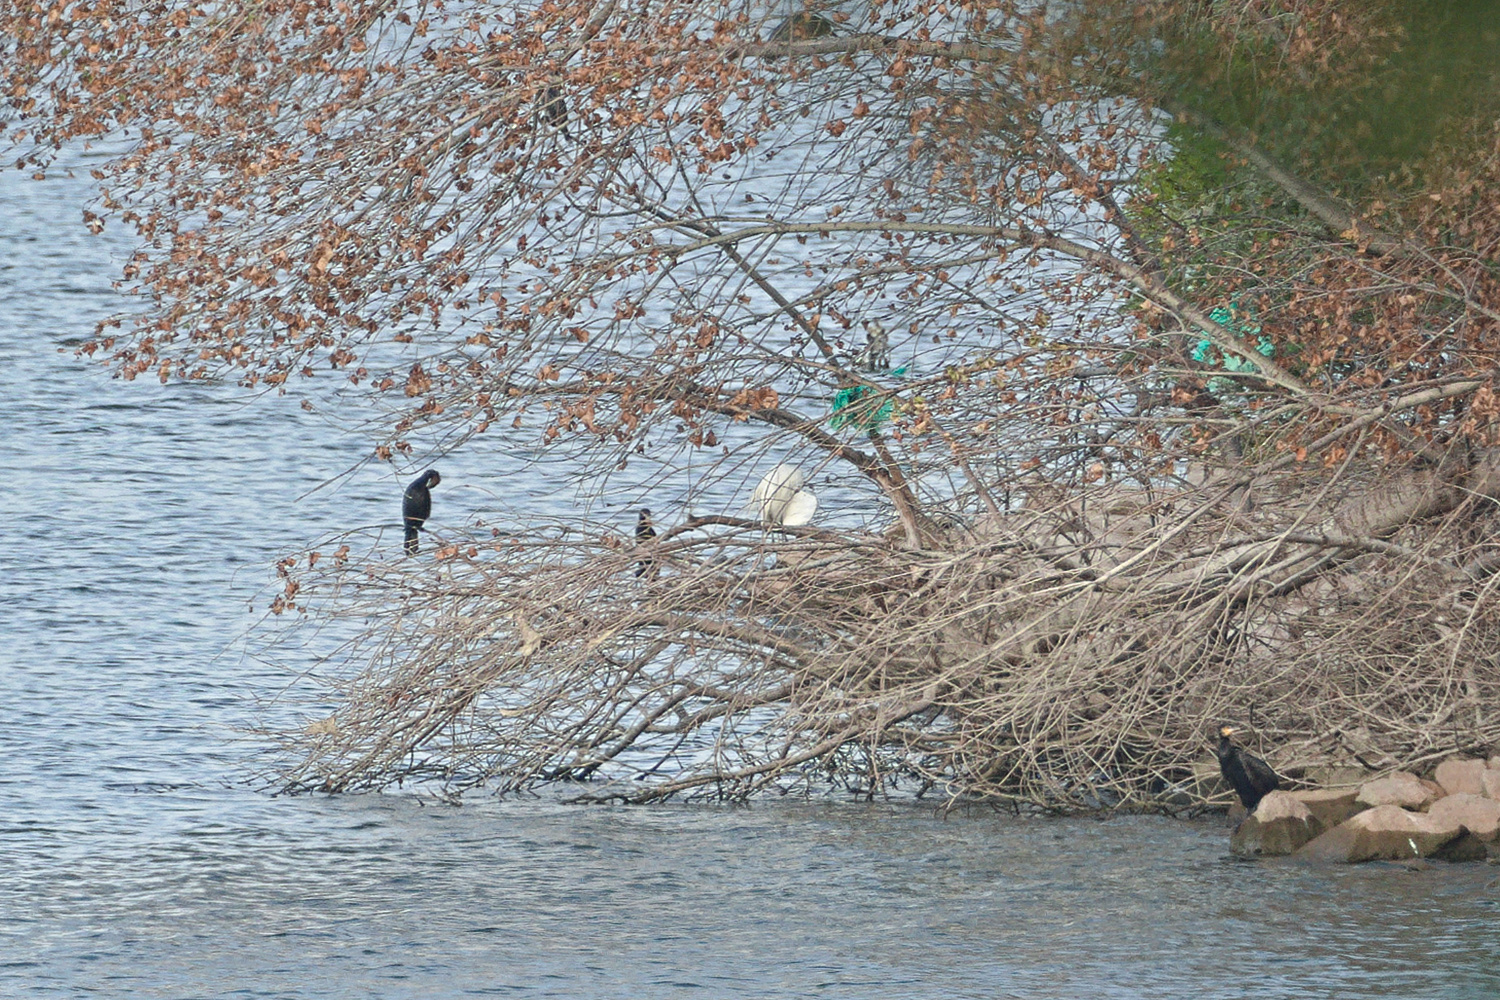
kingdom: Animalia
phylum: Chordata
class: Aves
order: Pelecaniformes
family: Ardeidae
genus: Egretta
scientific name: Egretta garzetta
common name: Little egret
